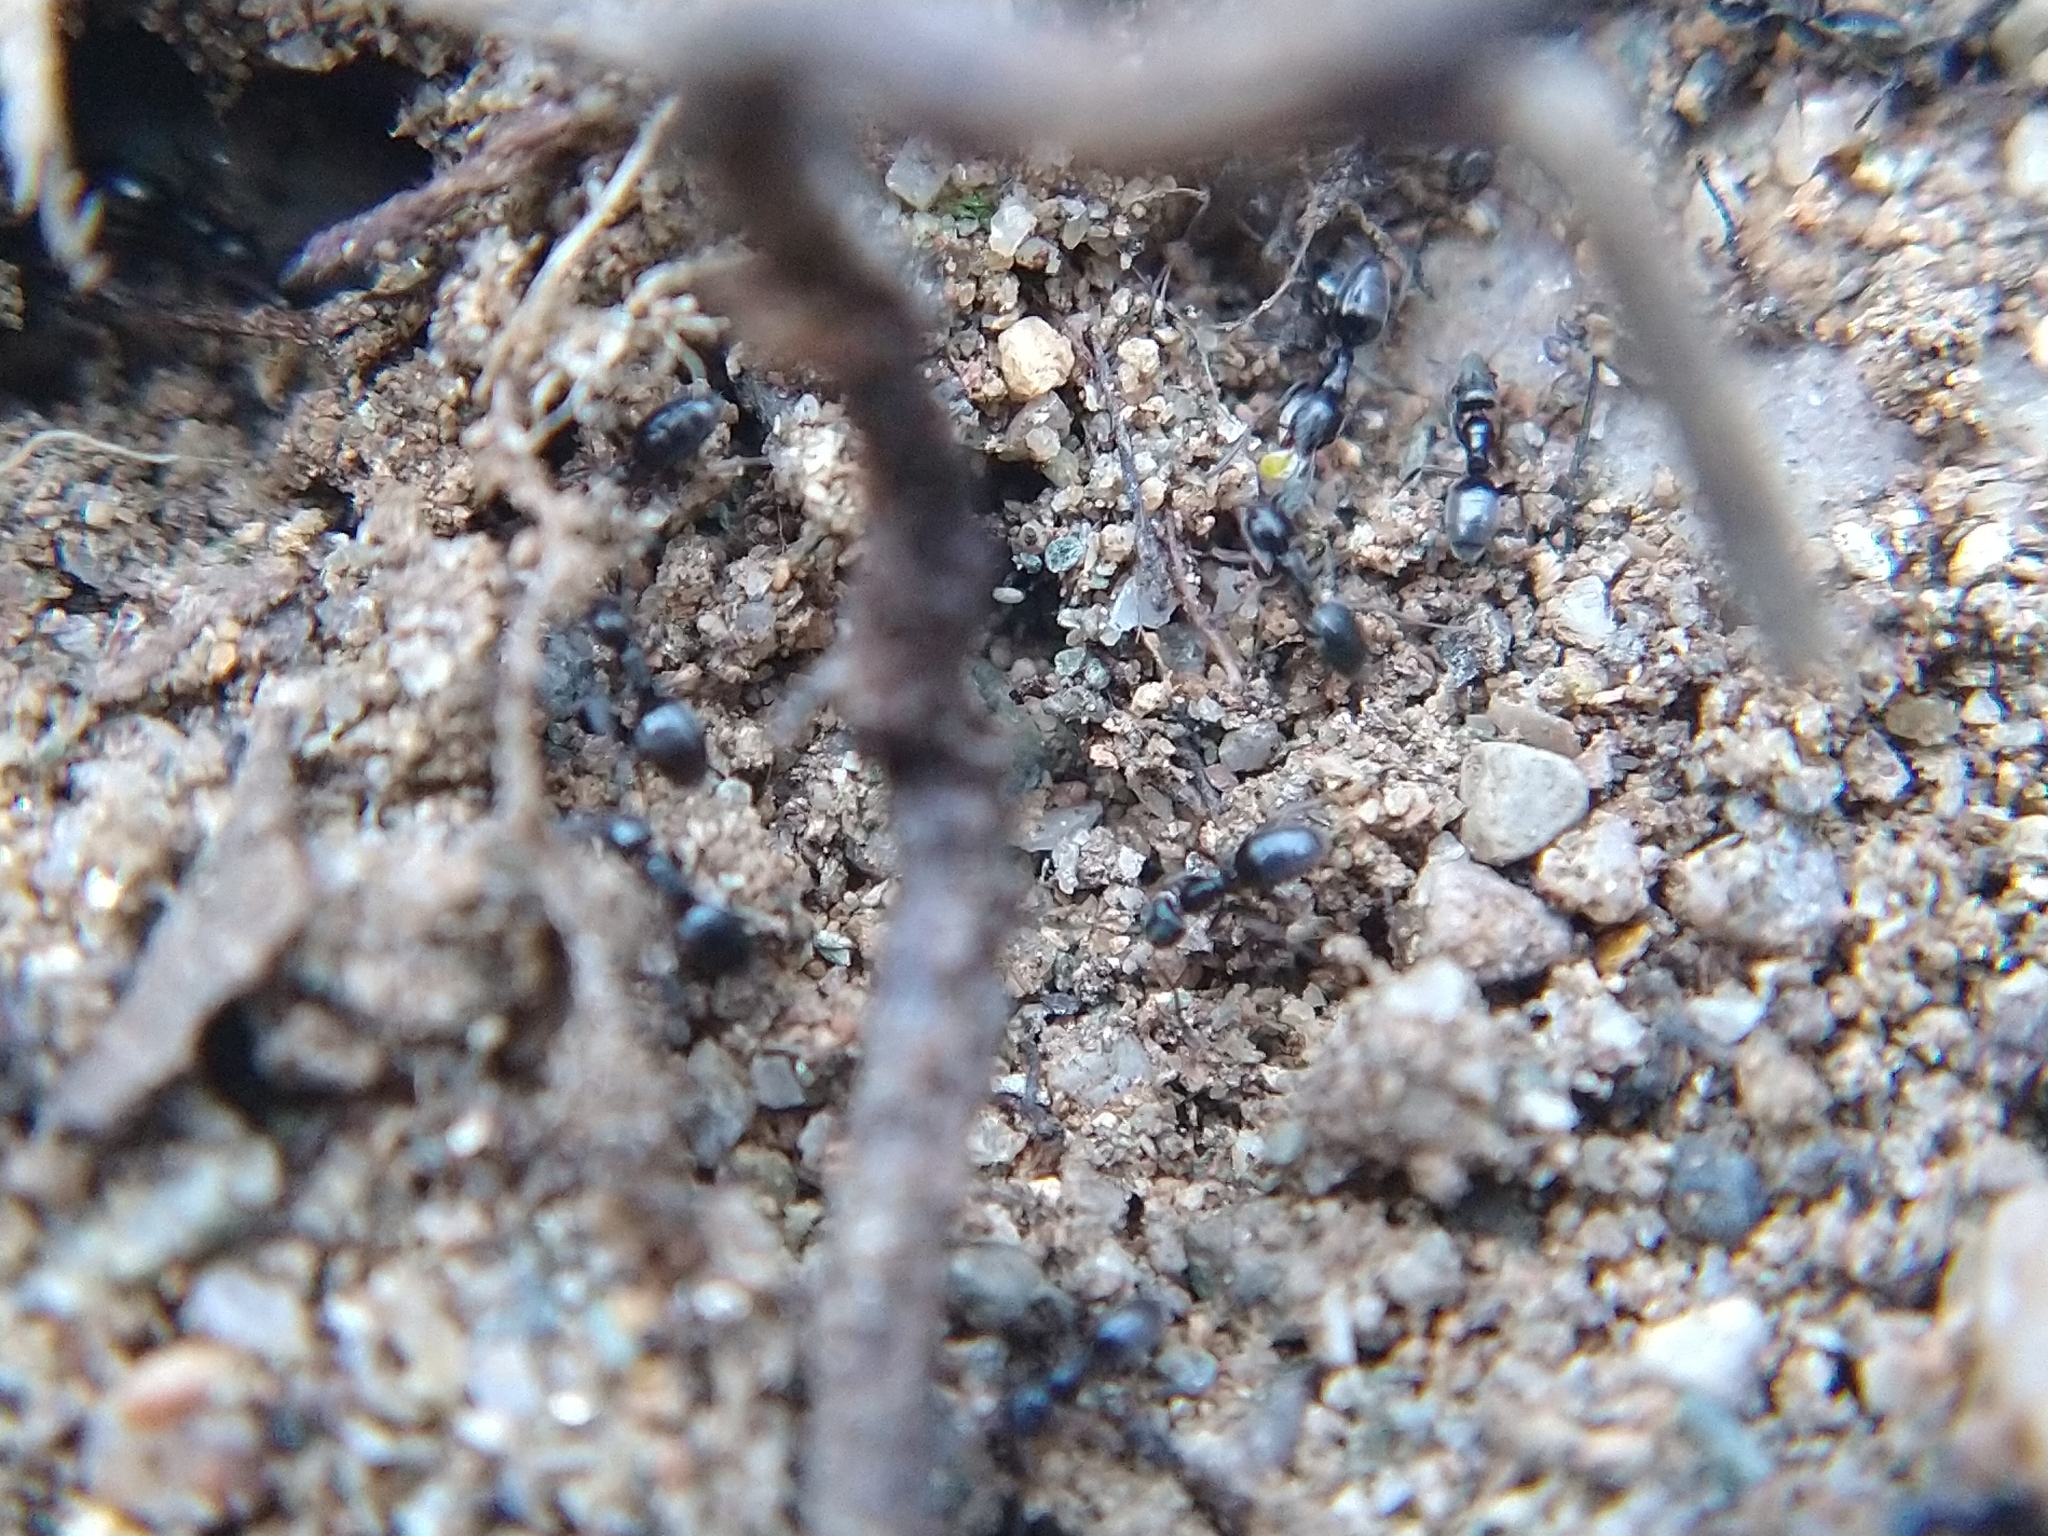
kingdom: Animalia
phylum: Arthropoda
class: Insecta
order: Hymenoptera
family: Formicidae
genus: Tapinoma
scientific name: Tapinoma sessile
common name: Odorous house ant
